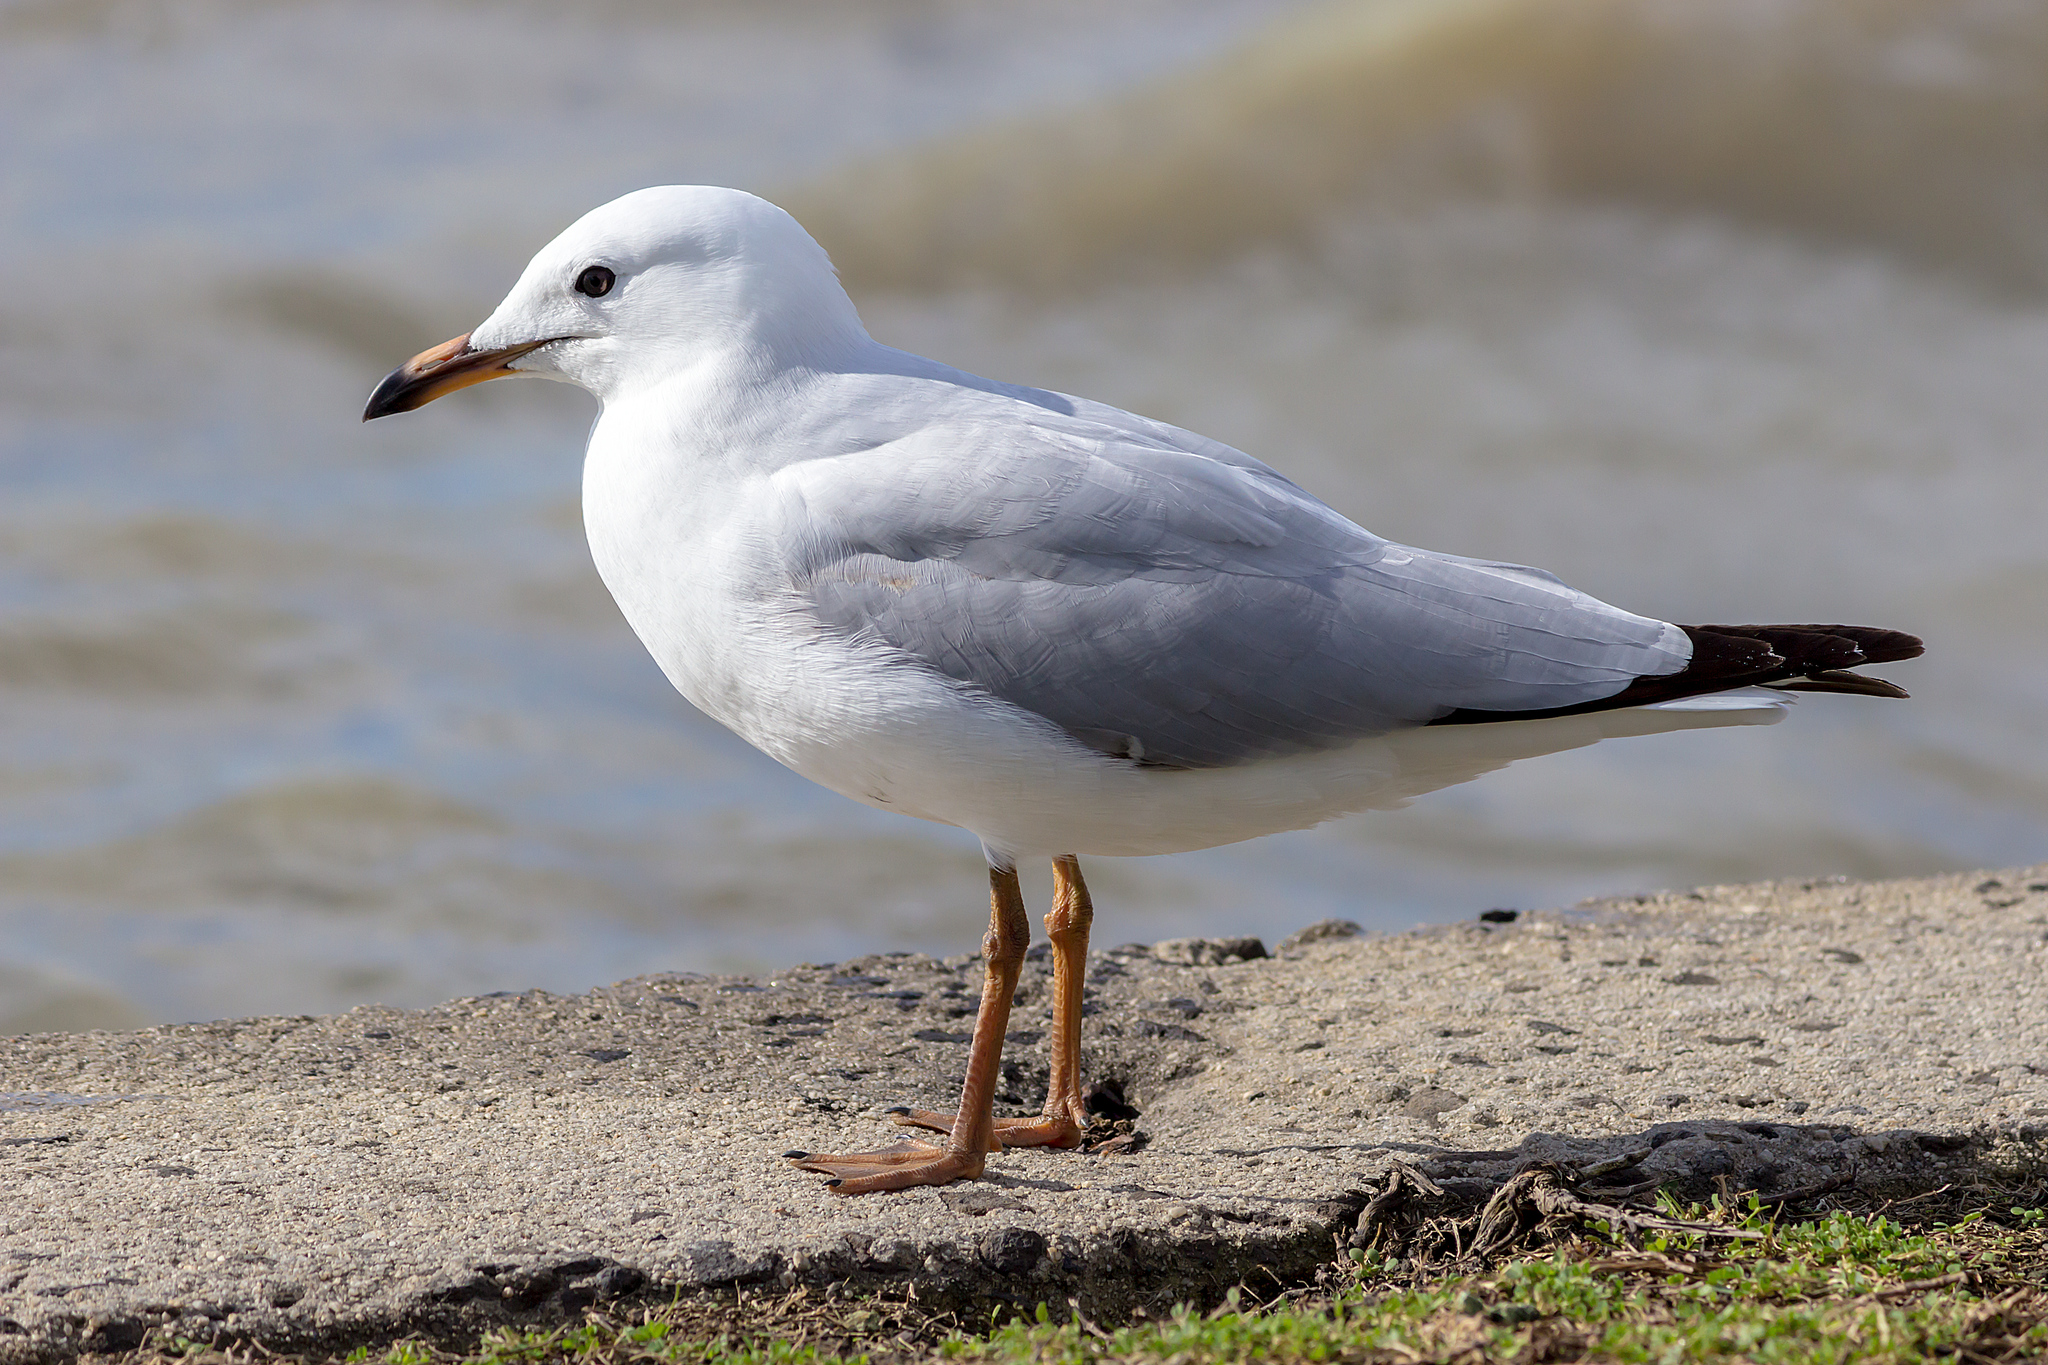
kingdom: Animalia
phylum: Chordata
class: Aves
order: Charadriiformes
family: Laridae
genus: Chroicocephalus
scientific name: Chroicocephalus novaehollandiae
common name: Silver gull
